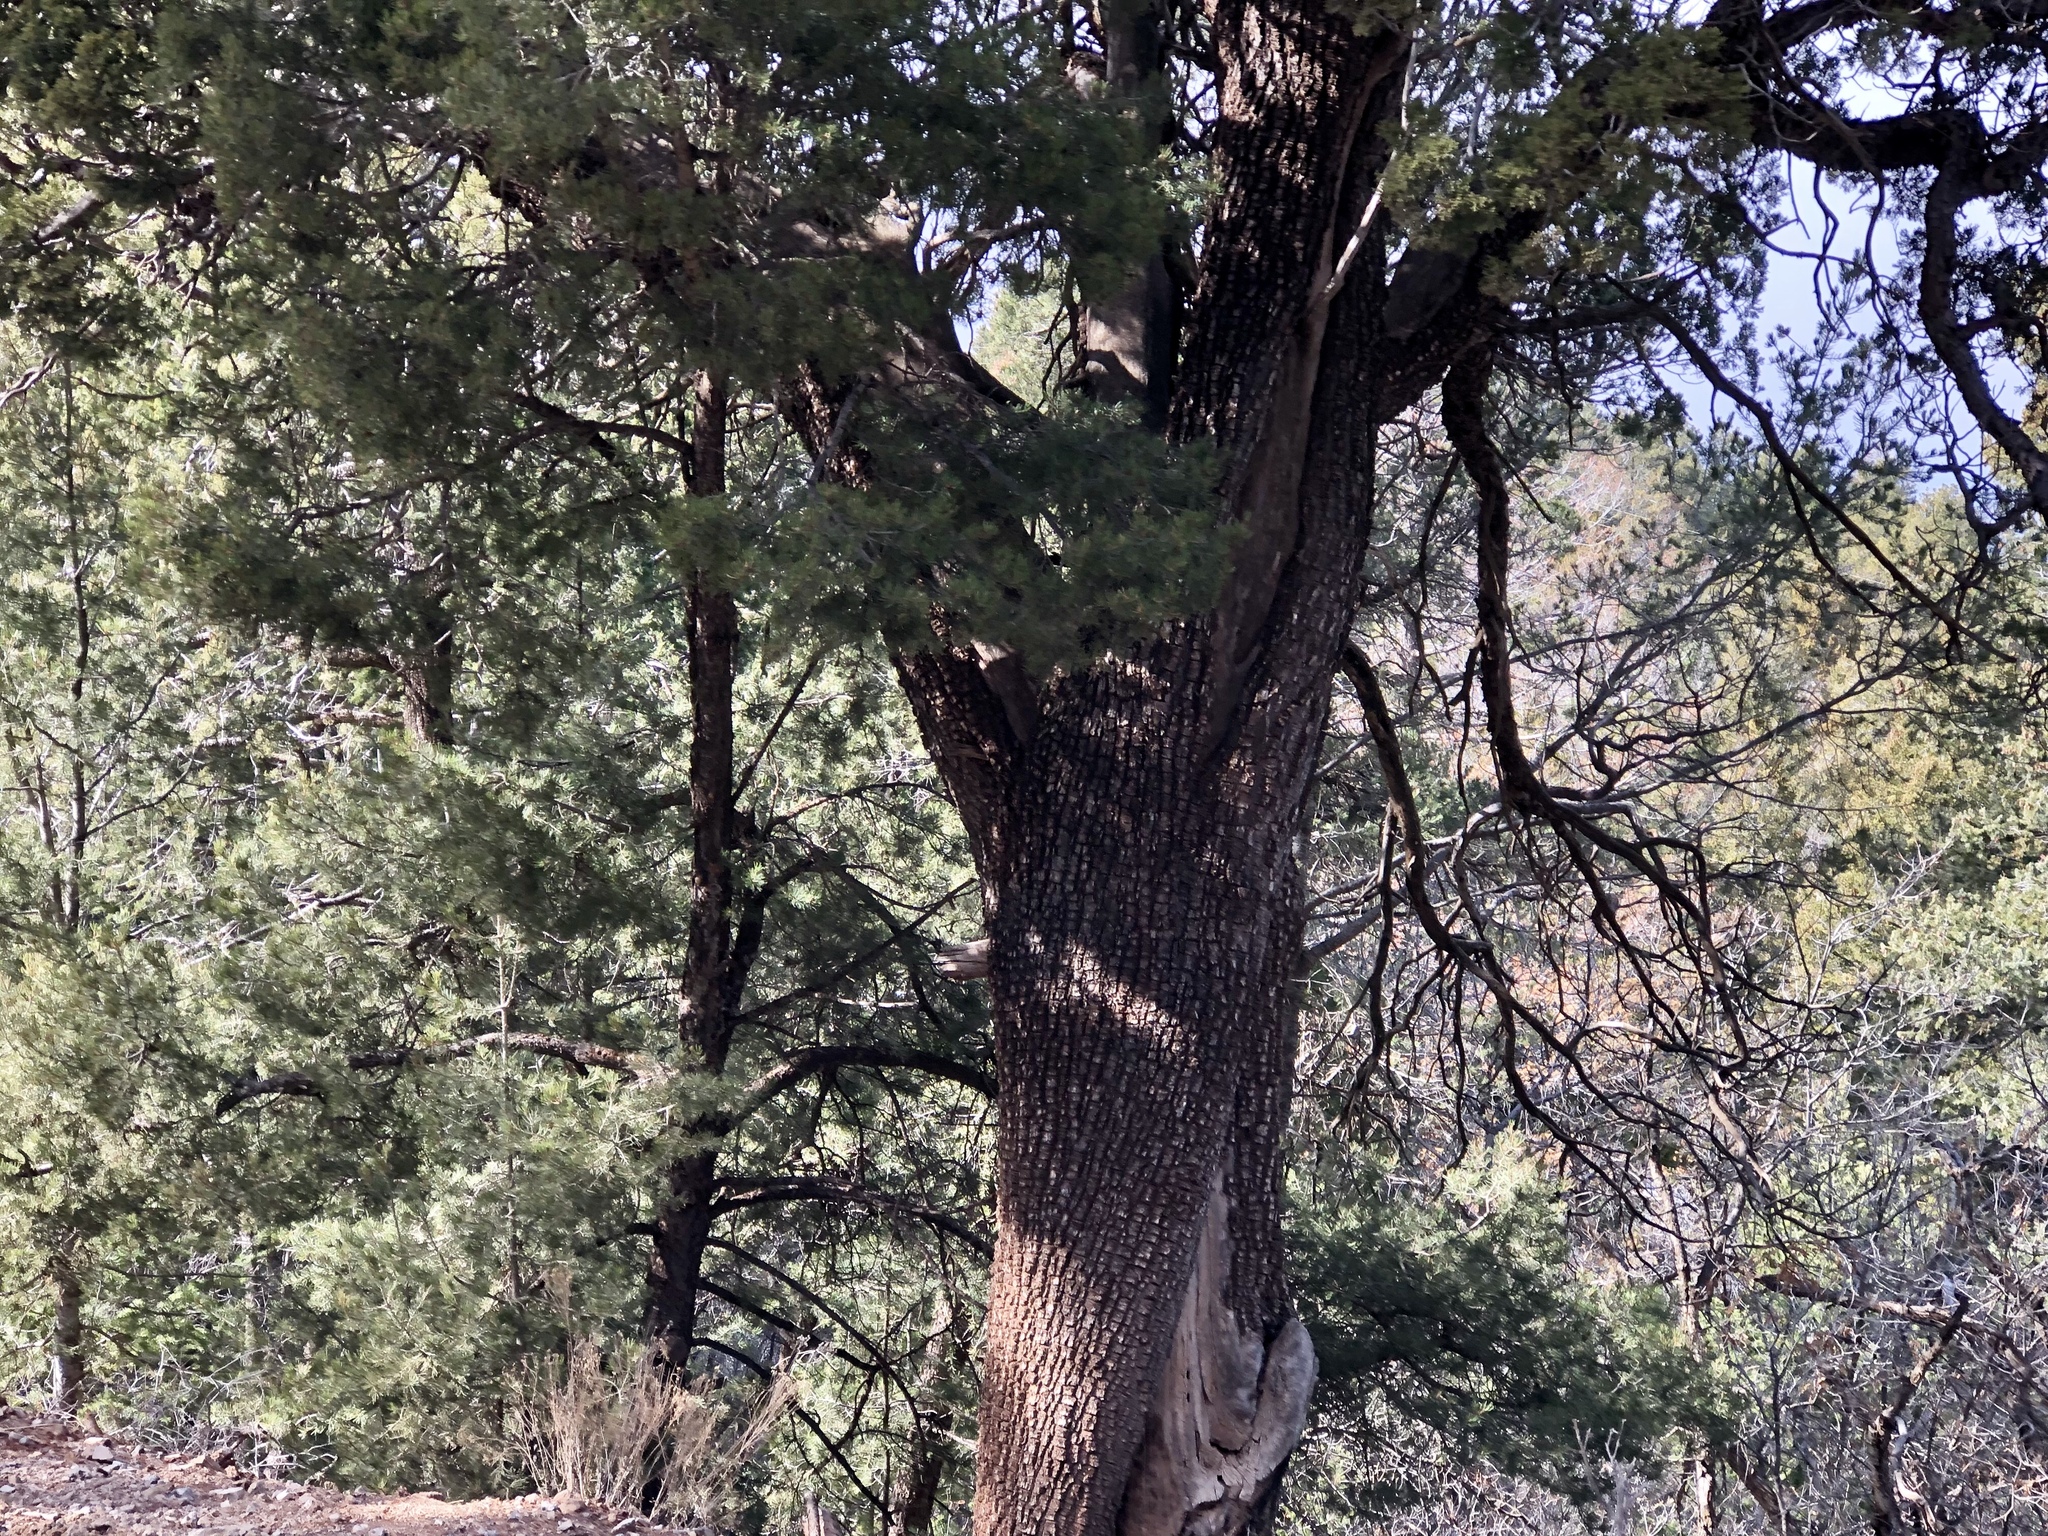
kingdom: Plantae
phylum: Tracheophyta
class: Pinopsida
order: Pinales
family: Cupressaceae
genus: Juniperus
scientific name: Juniperus deppeana
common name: Alligator juniper
